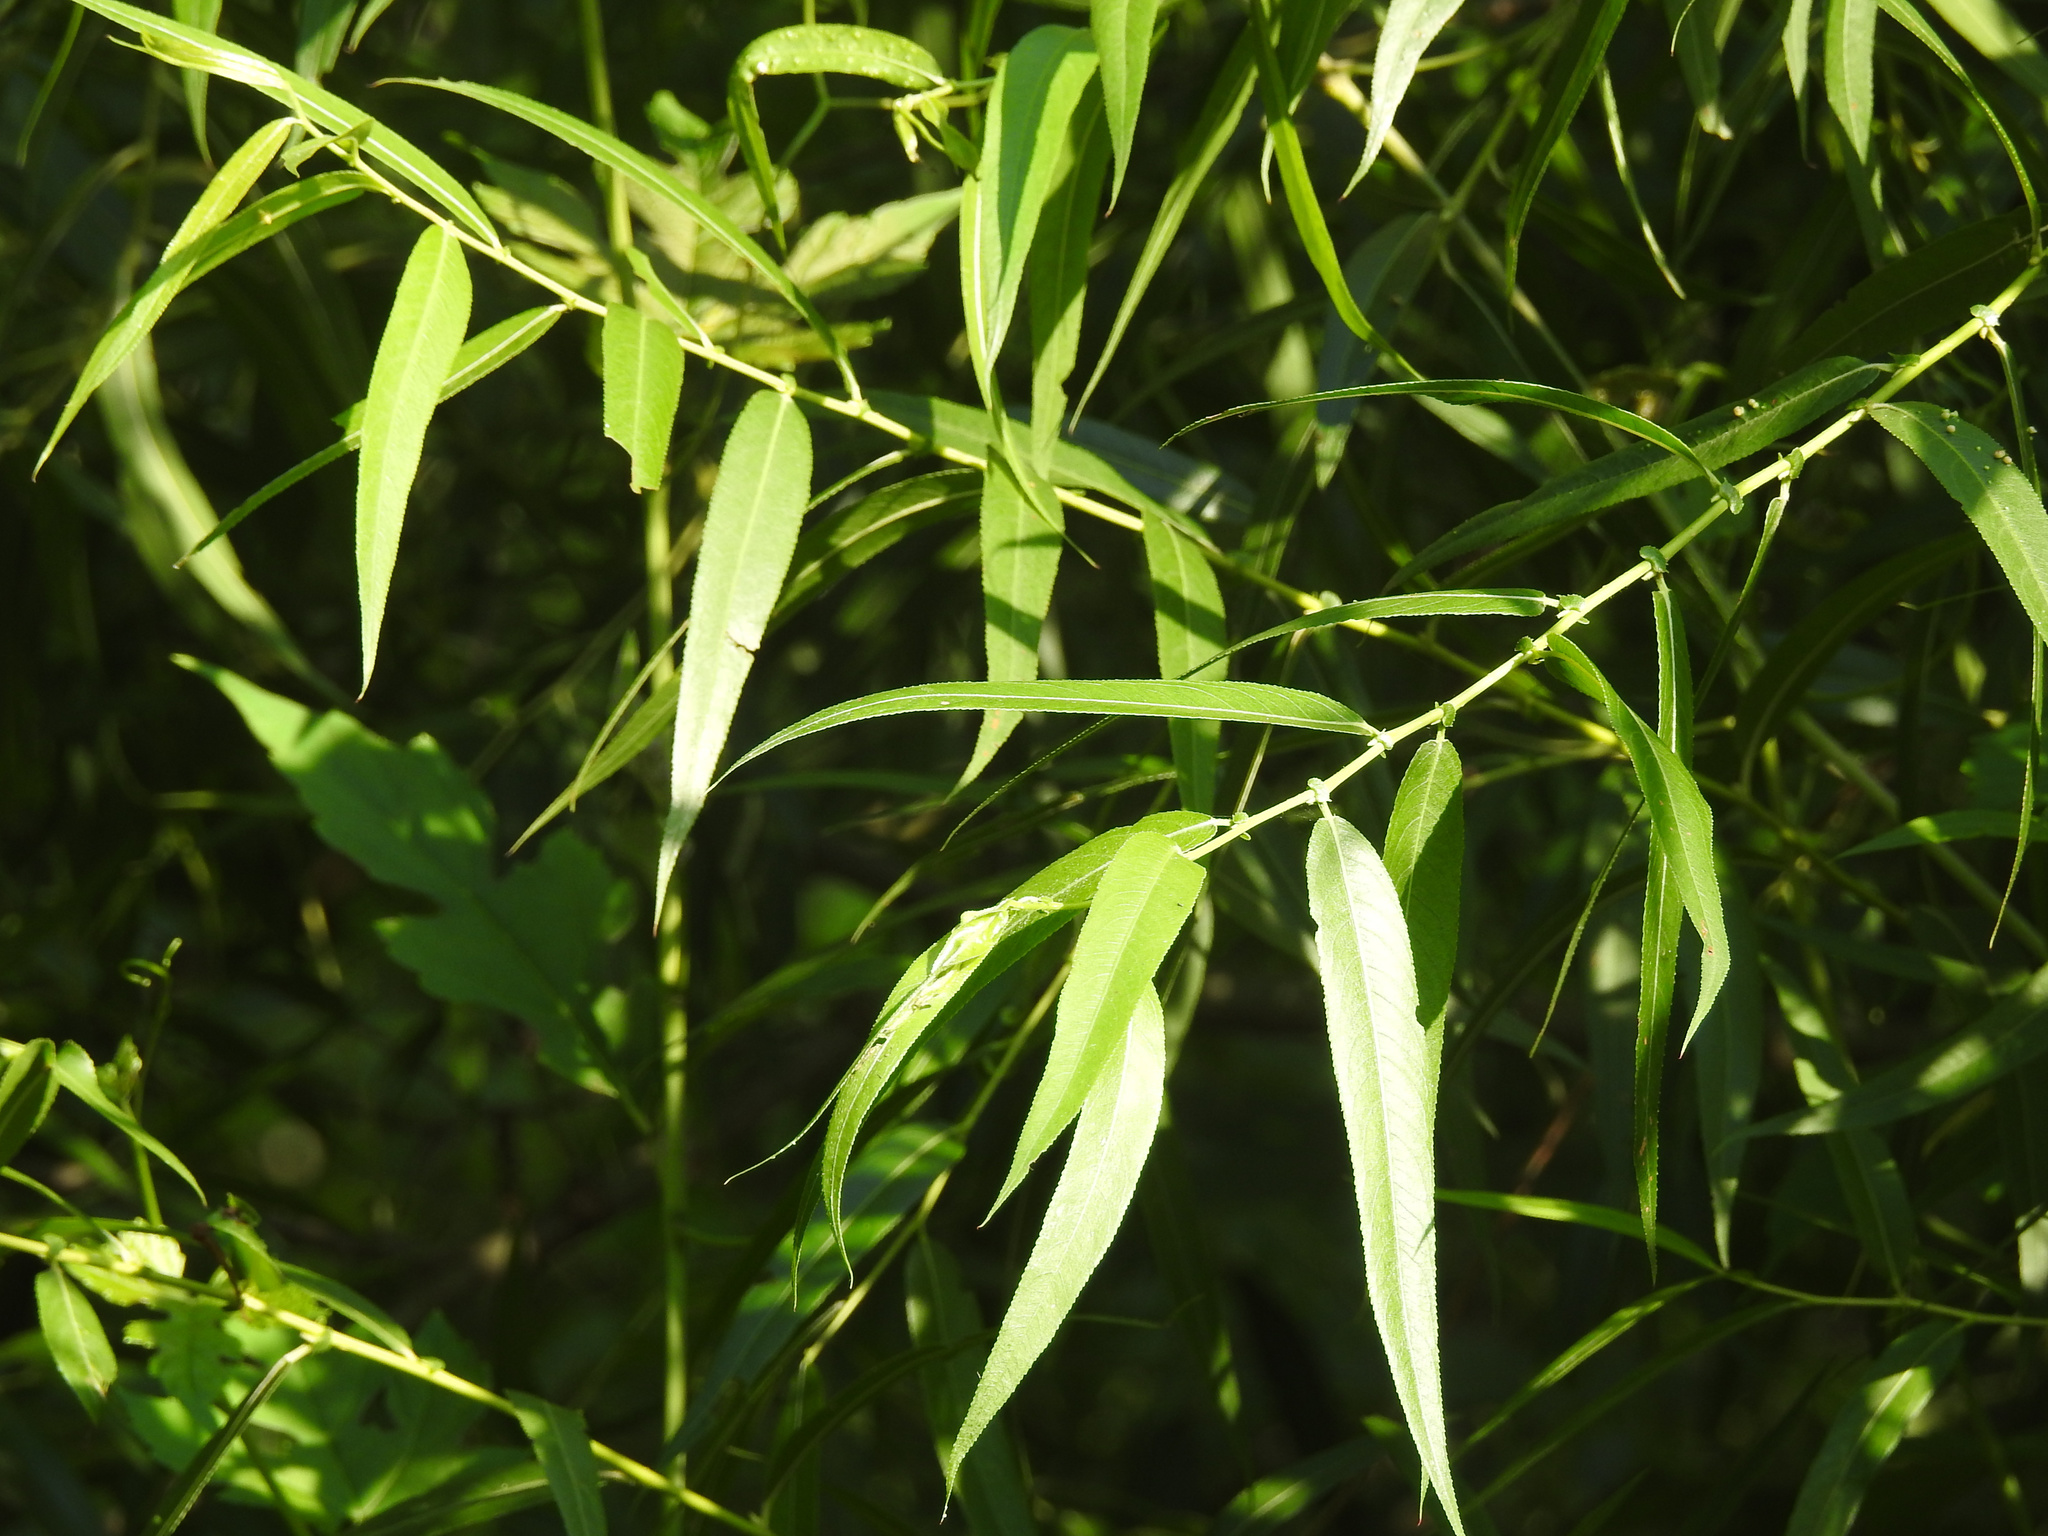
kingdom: Plantae
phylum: Tracheophyta
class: Magnoliopsida
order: Malpighiales
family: Salicaceae
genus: Salix
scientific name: Salix nigra
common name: Black willow
